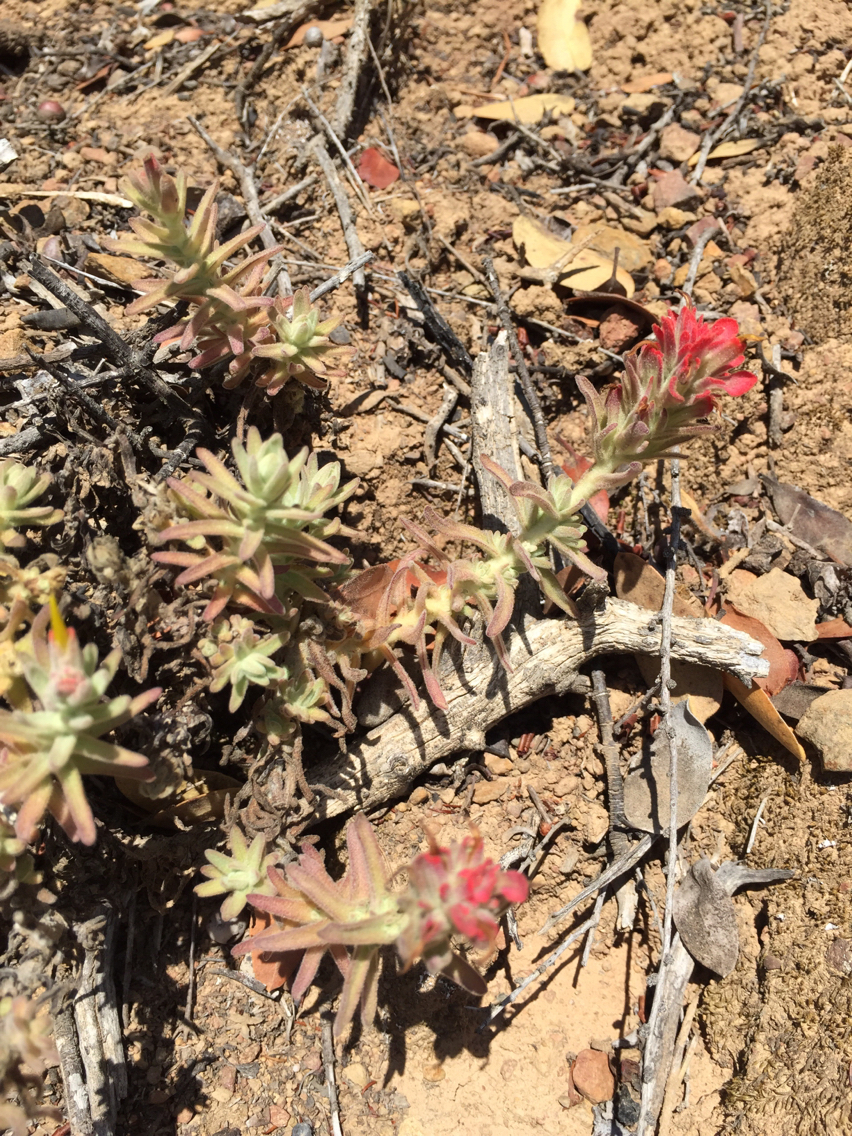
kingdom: Plantae
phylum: Tracheophyta
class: Magnoliopsida
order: Lamiales
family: Orobanchaceae
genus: Castilleja
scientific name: Castilleja foliolosa
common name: Woolly indian paintbrush
